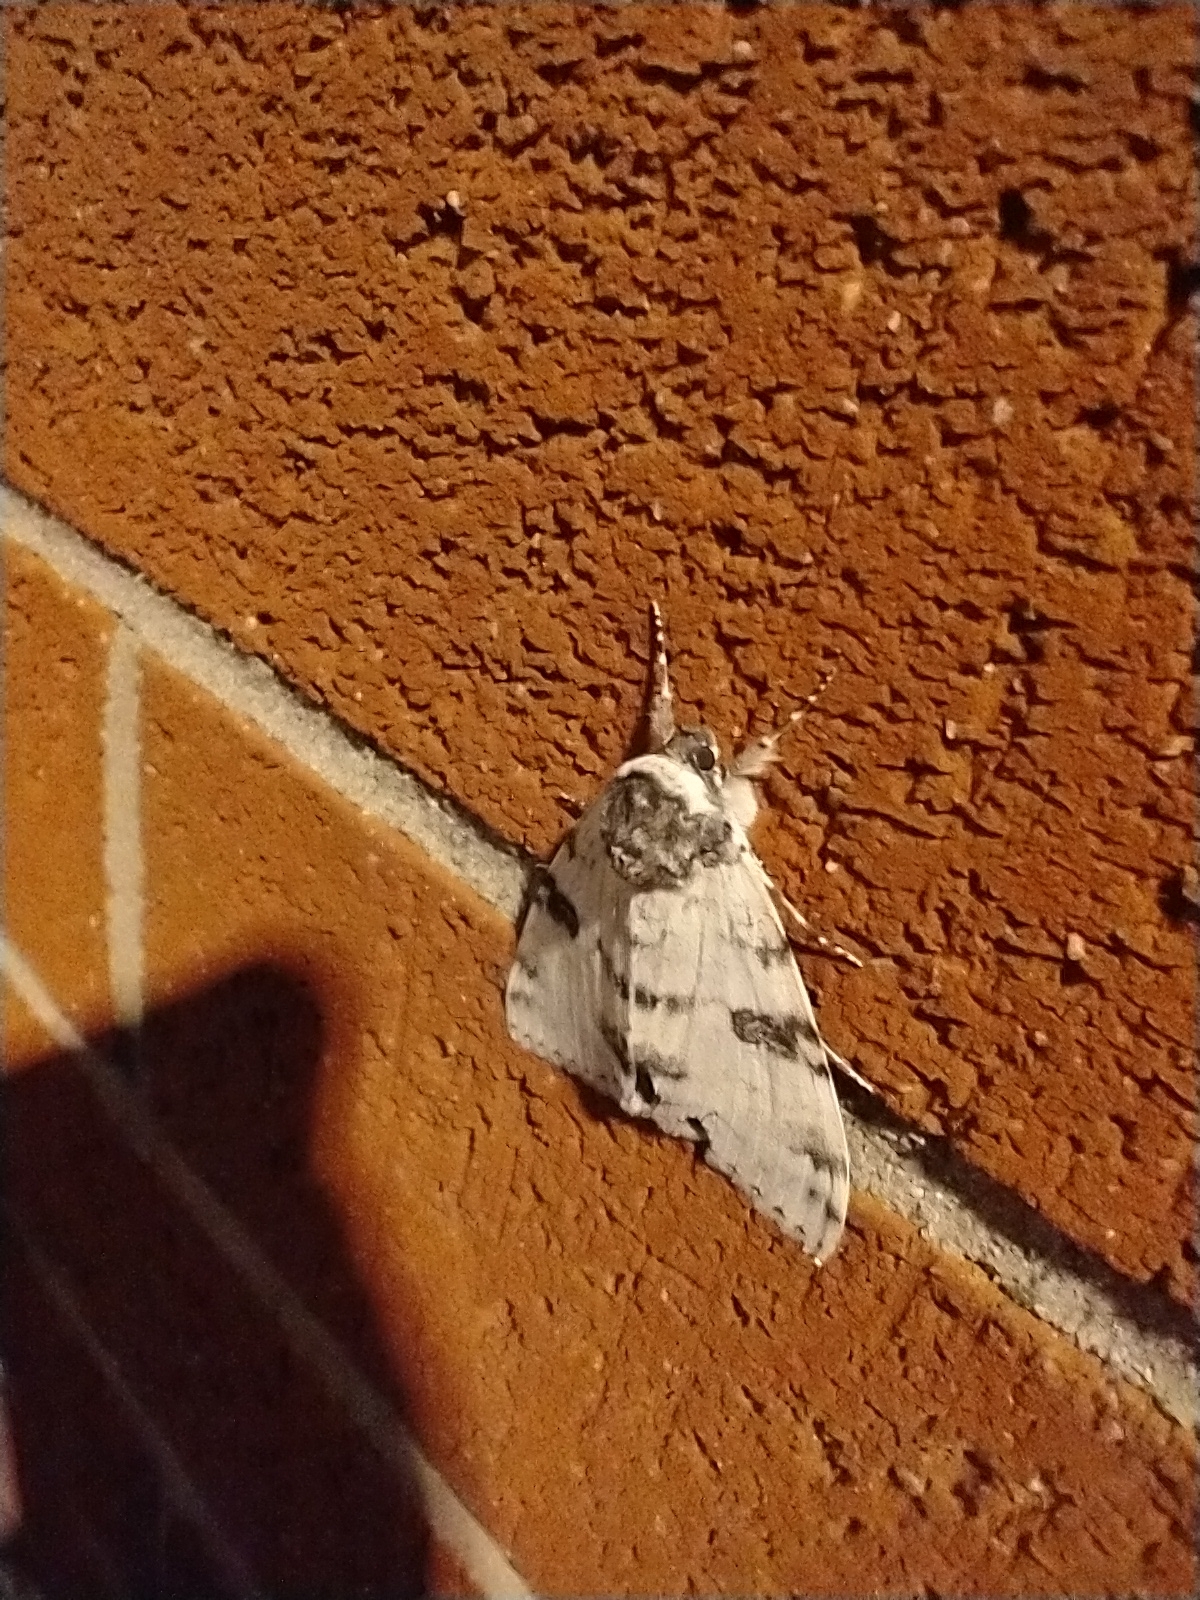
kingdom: Animalia
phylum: Arthropoda
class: Insecta
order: Lepidoptera
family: Erebidae
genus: Catocala
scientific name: Catocala relicta
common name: White underwing
